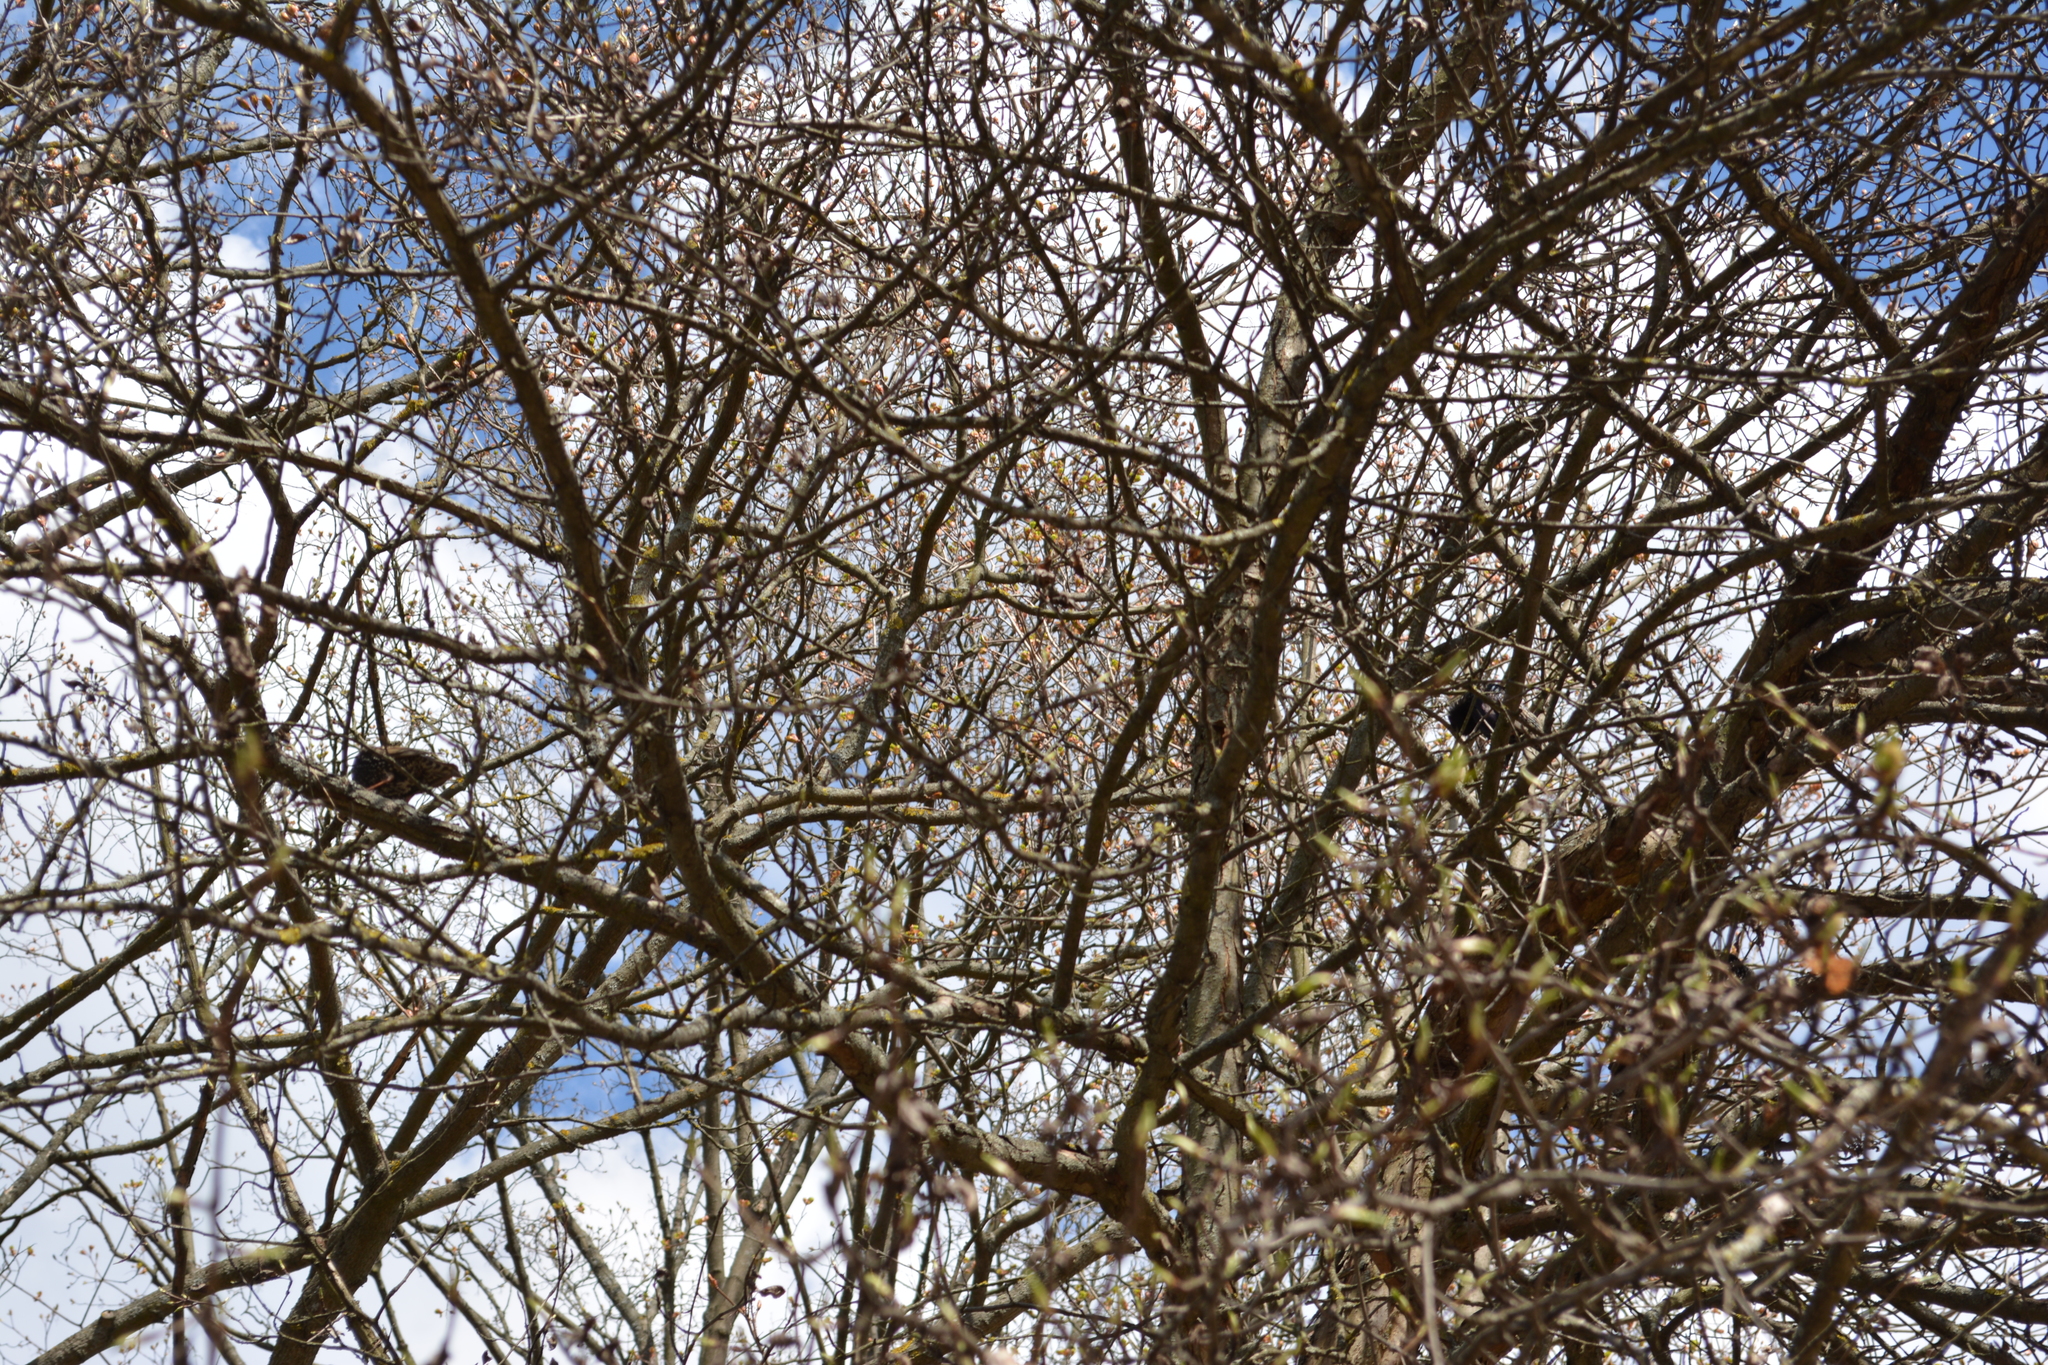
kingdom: Animalia
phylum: Chordata
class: Aves
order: Passeriformes
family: Sturnidae
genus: Sturnus
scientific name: Sturnus vulgaris
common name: Common starling
